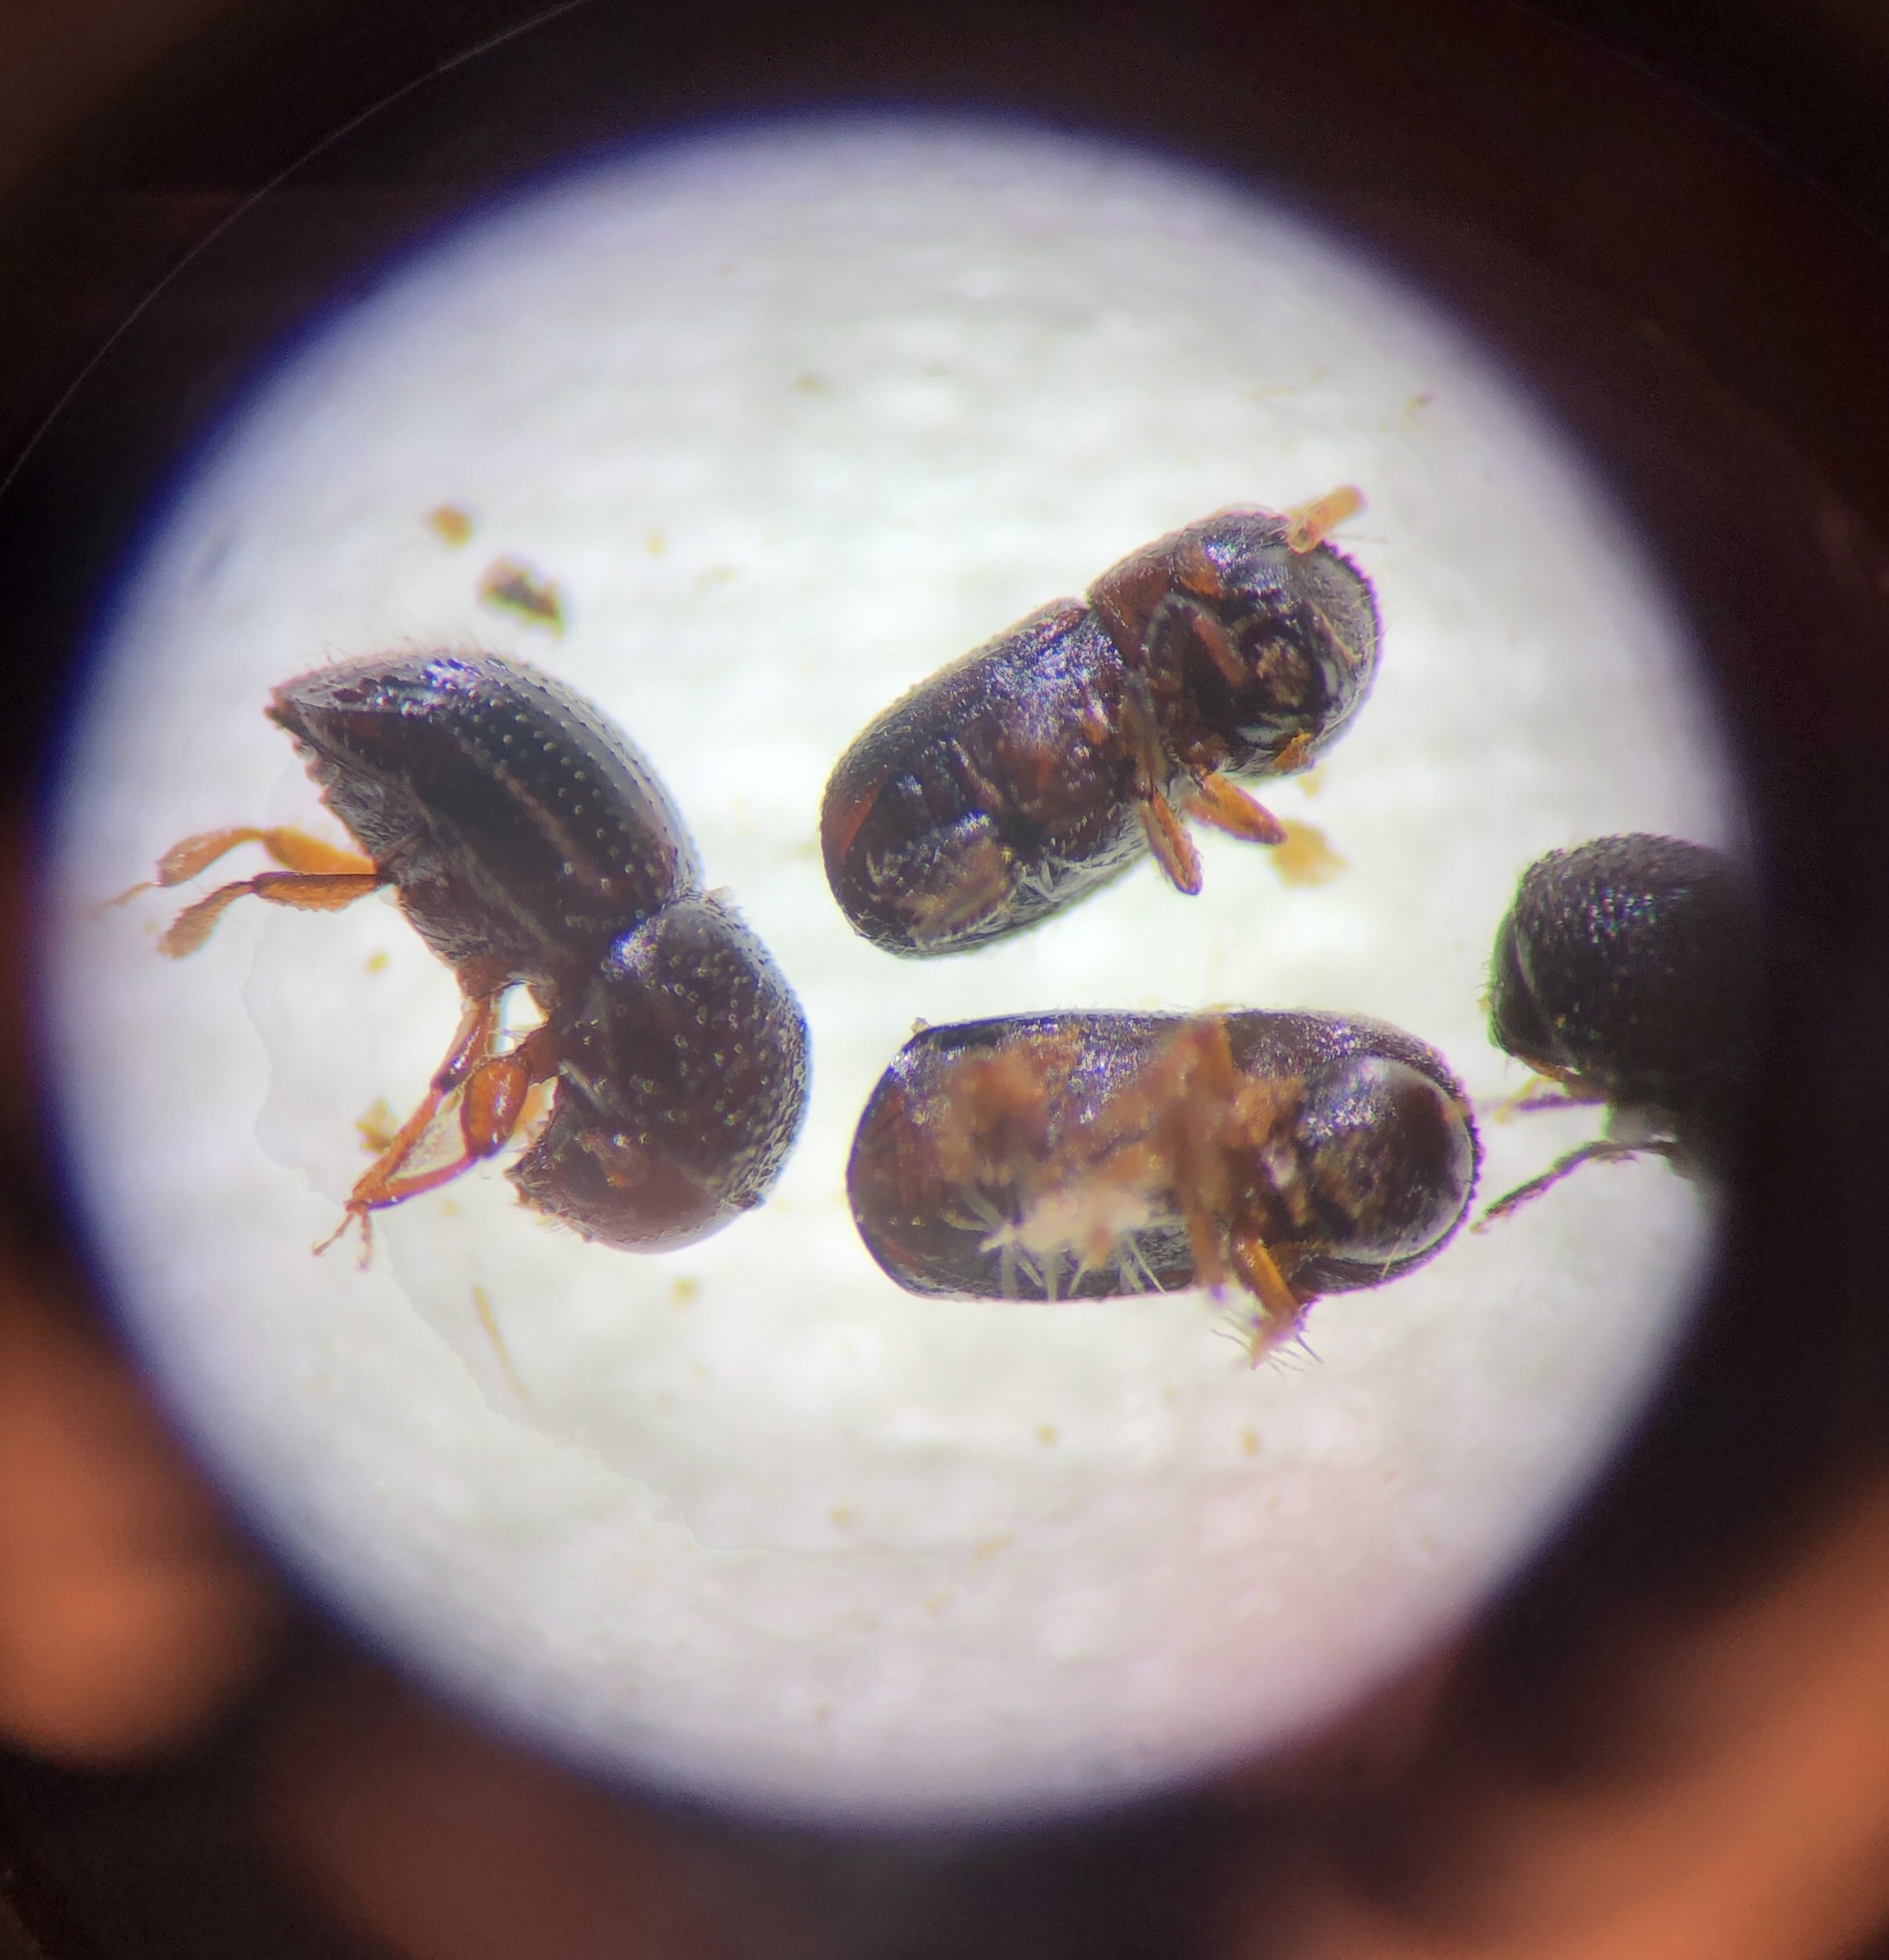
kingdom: Animalia
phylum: Arthropoda
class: Insecta
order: Coleoptera
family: Curculionidae
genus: Anisandrus
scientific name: Anisandrus maiche
